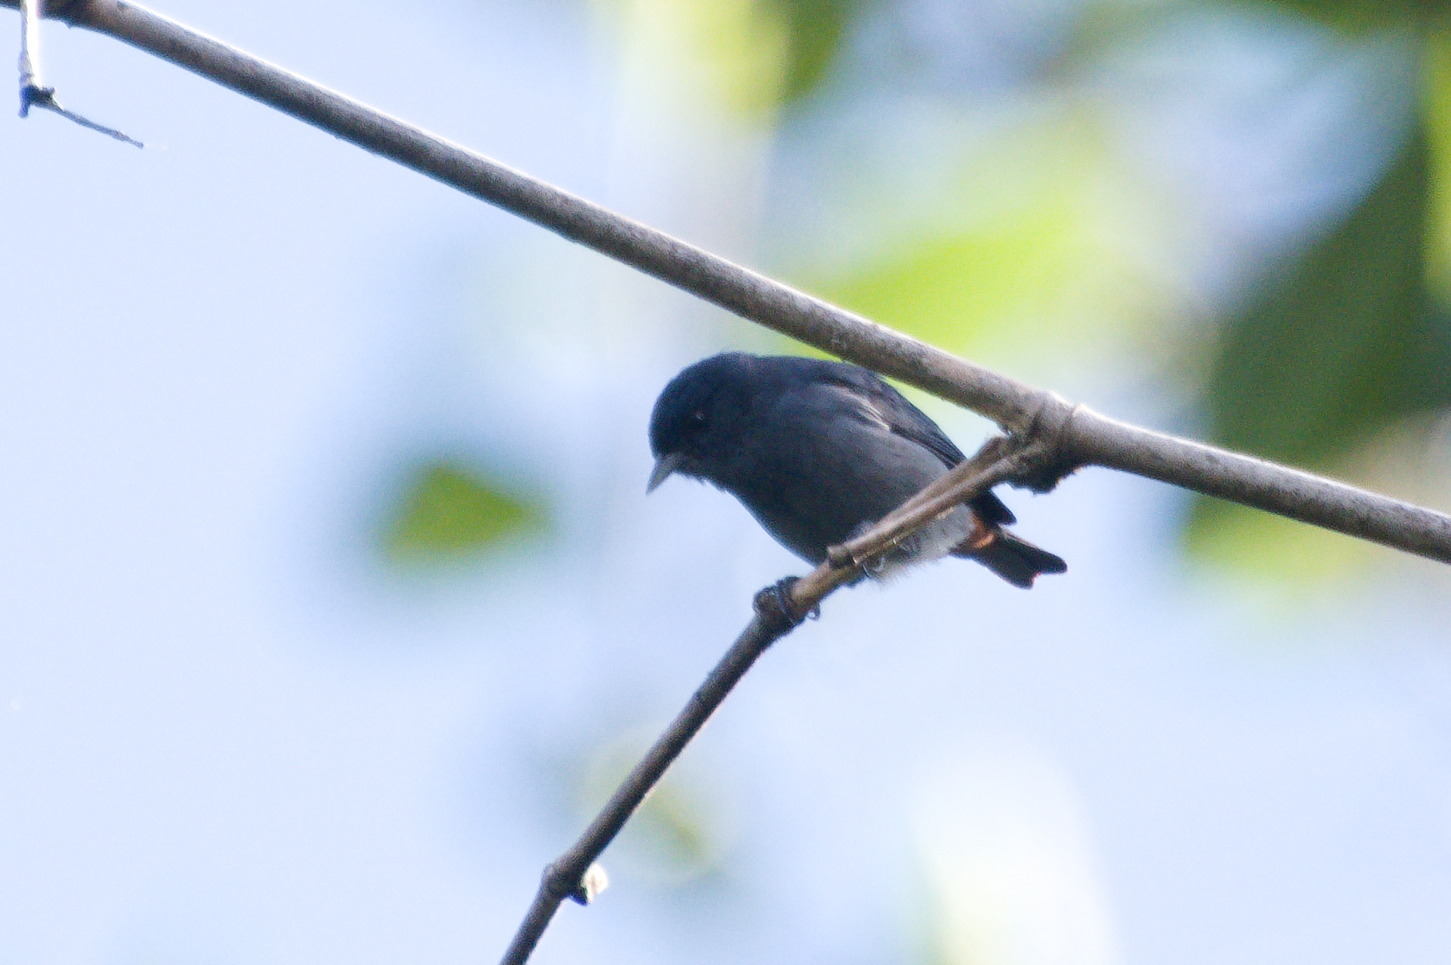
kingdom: Animalia
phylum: Chordata
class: Aves
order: Passeriformes
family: Thraupidae
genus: Conirostrum
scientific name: Conirostrum speciosum
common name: Chestnut-vented conebill
